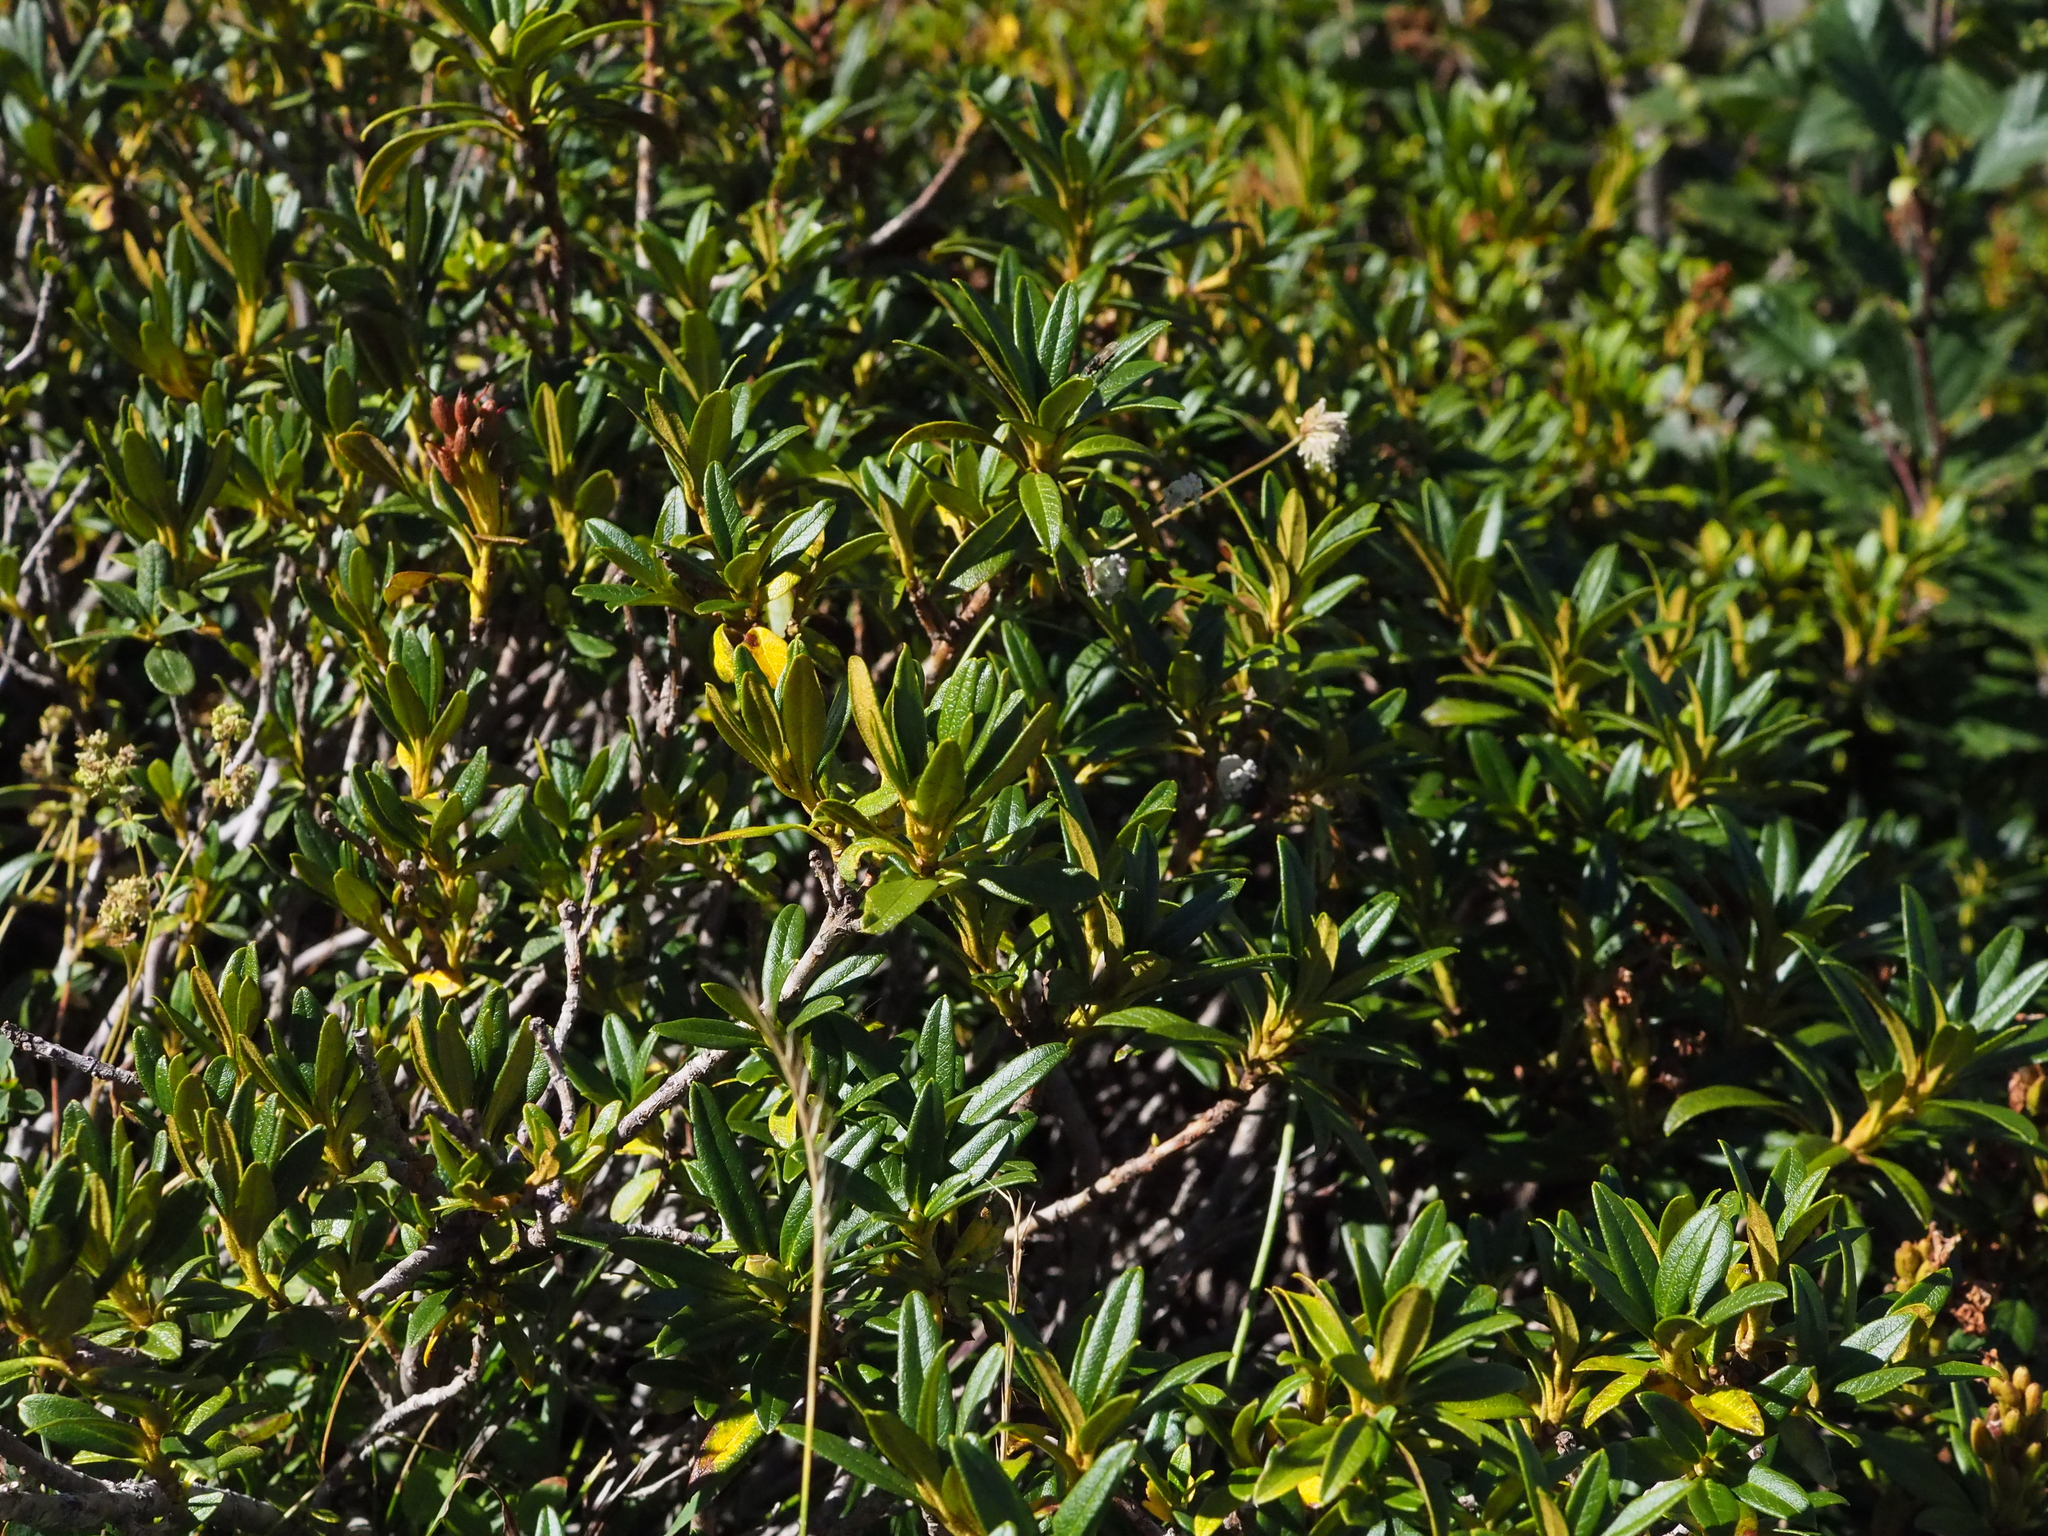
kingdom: Plantae
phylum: Tracheophyta
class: Magnoliopsida
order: Ericales
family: Ericaceae
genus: Rhododendron
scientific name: Rhododendron ferrugineum
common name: Alpenrose
